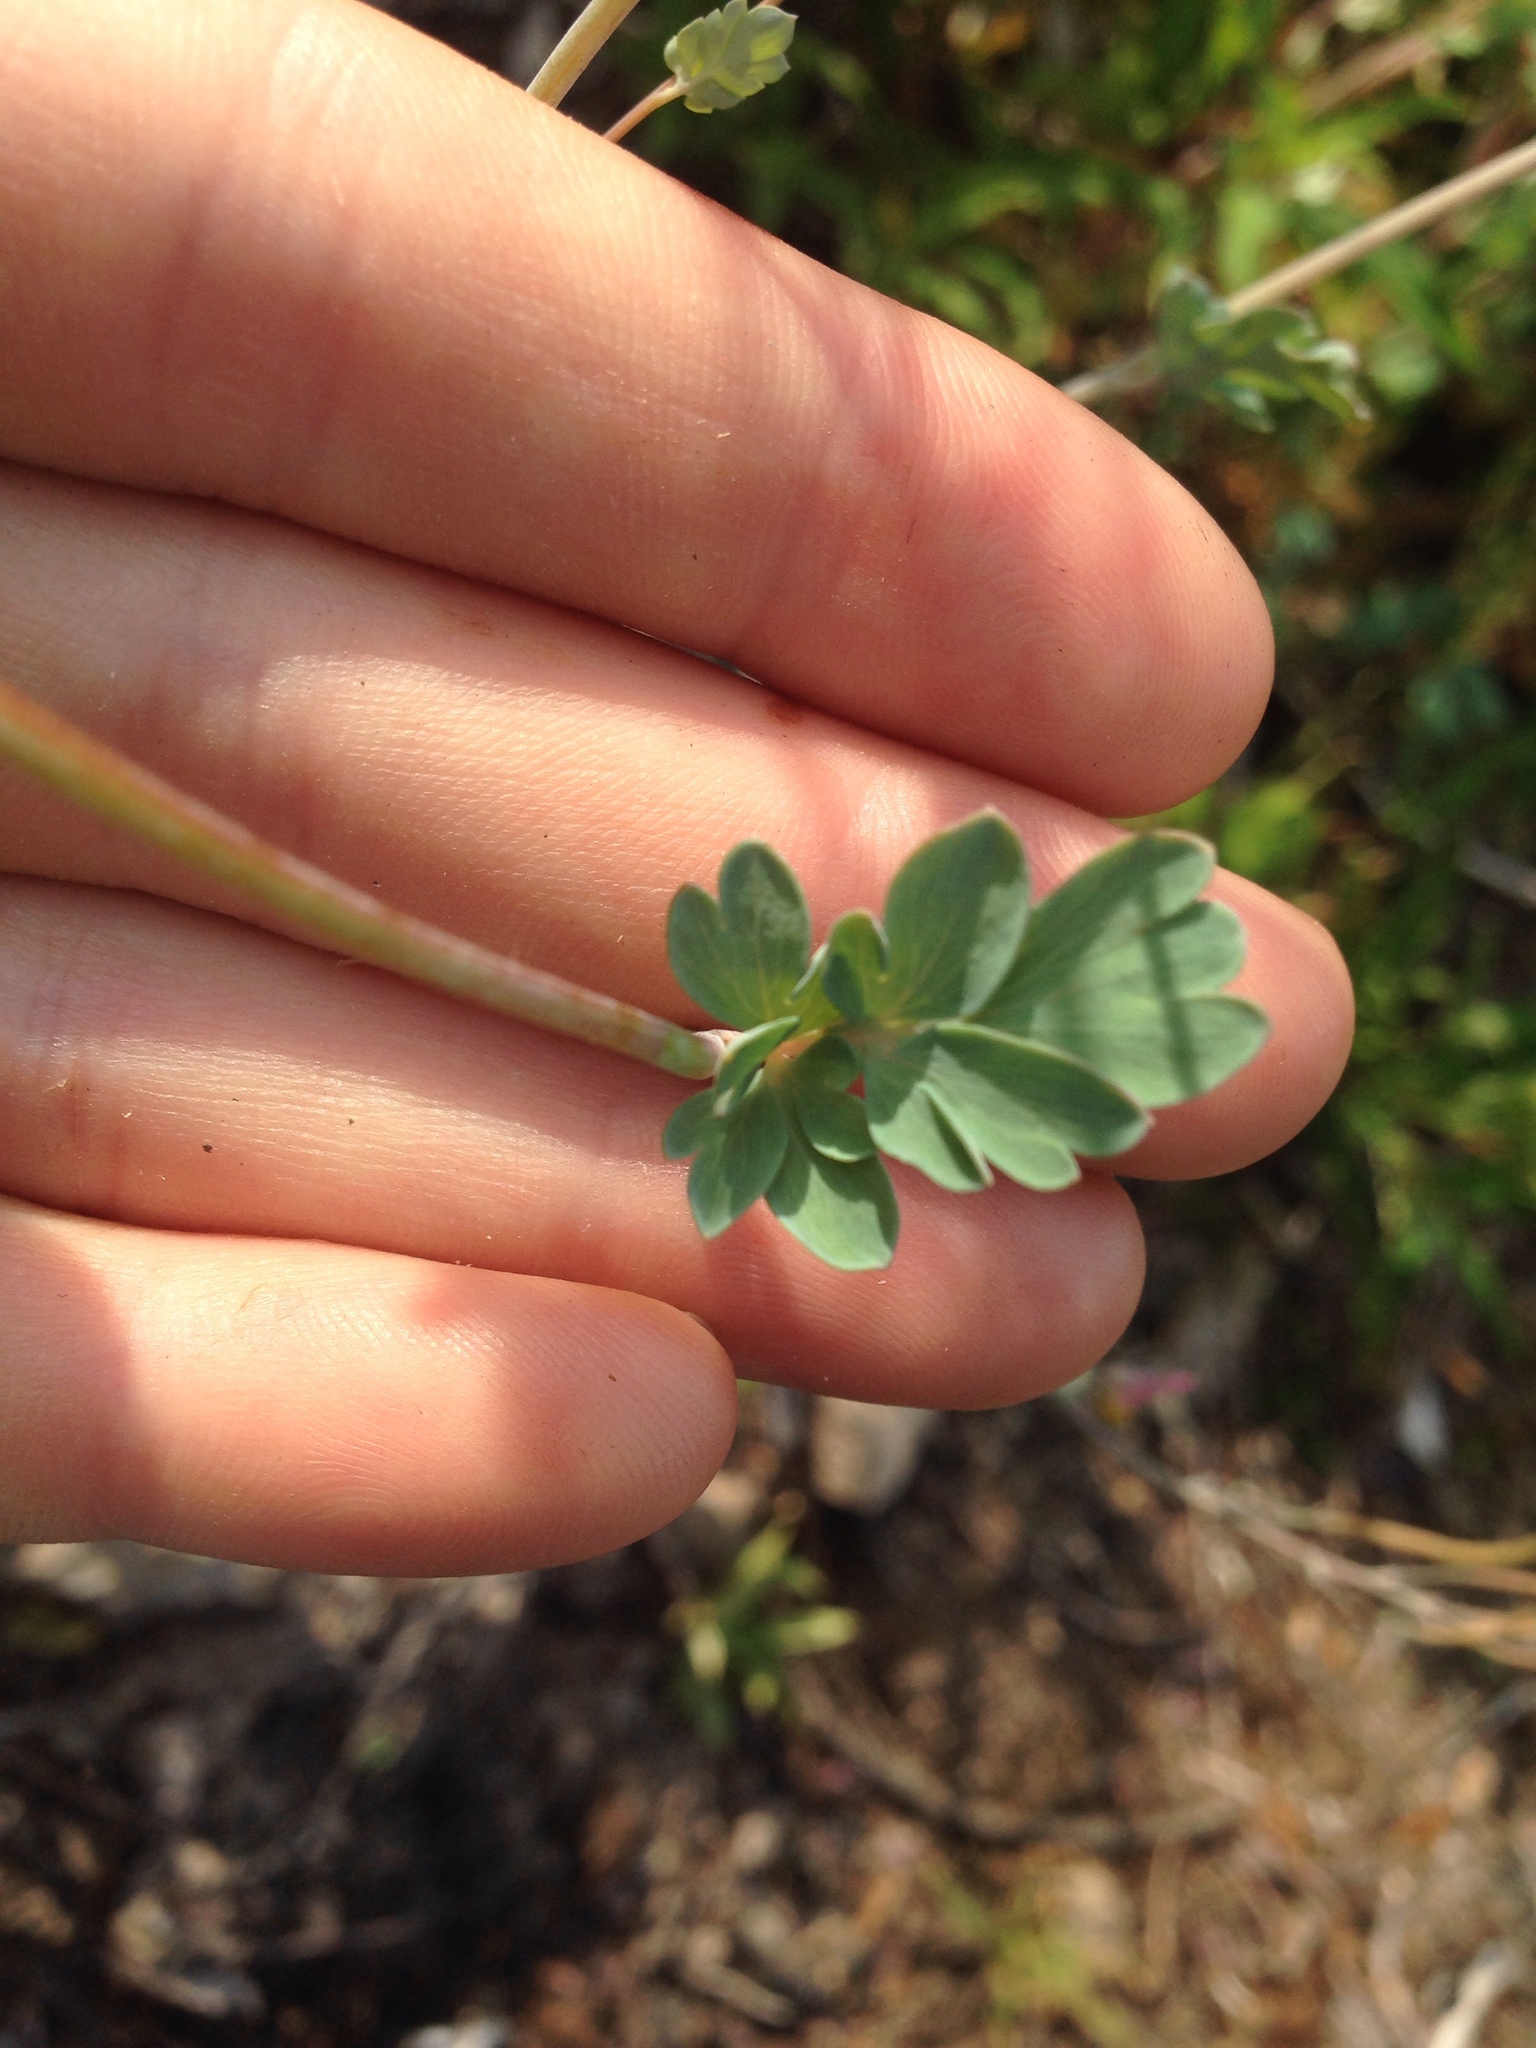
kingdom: Plantae
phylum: Tracheophyta
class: Magnoliopsida
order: Ranunculales
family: Papaveraceae
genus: Capnoides
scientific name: Capnoides sempervirens
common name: Rock harlequin
